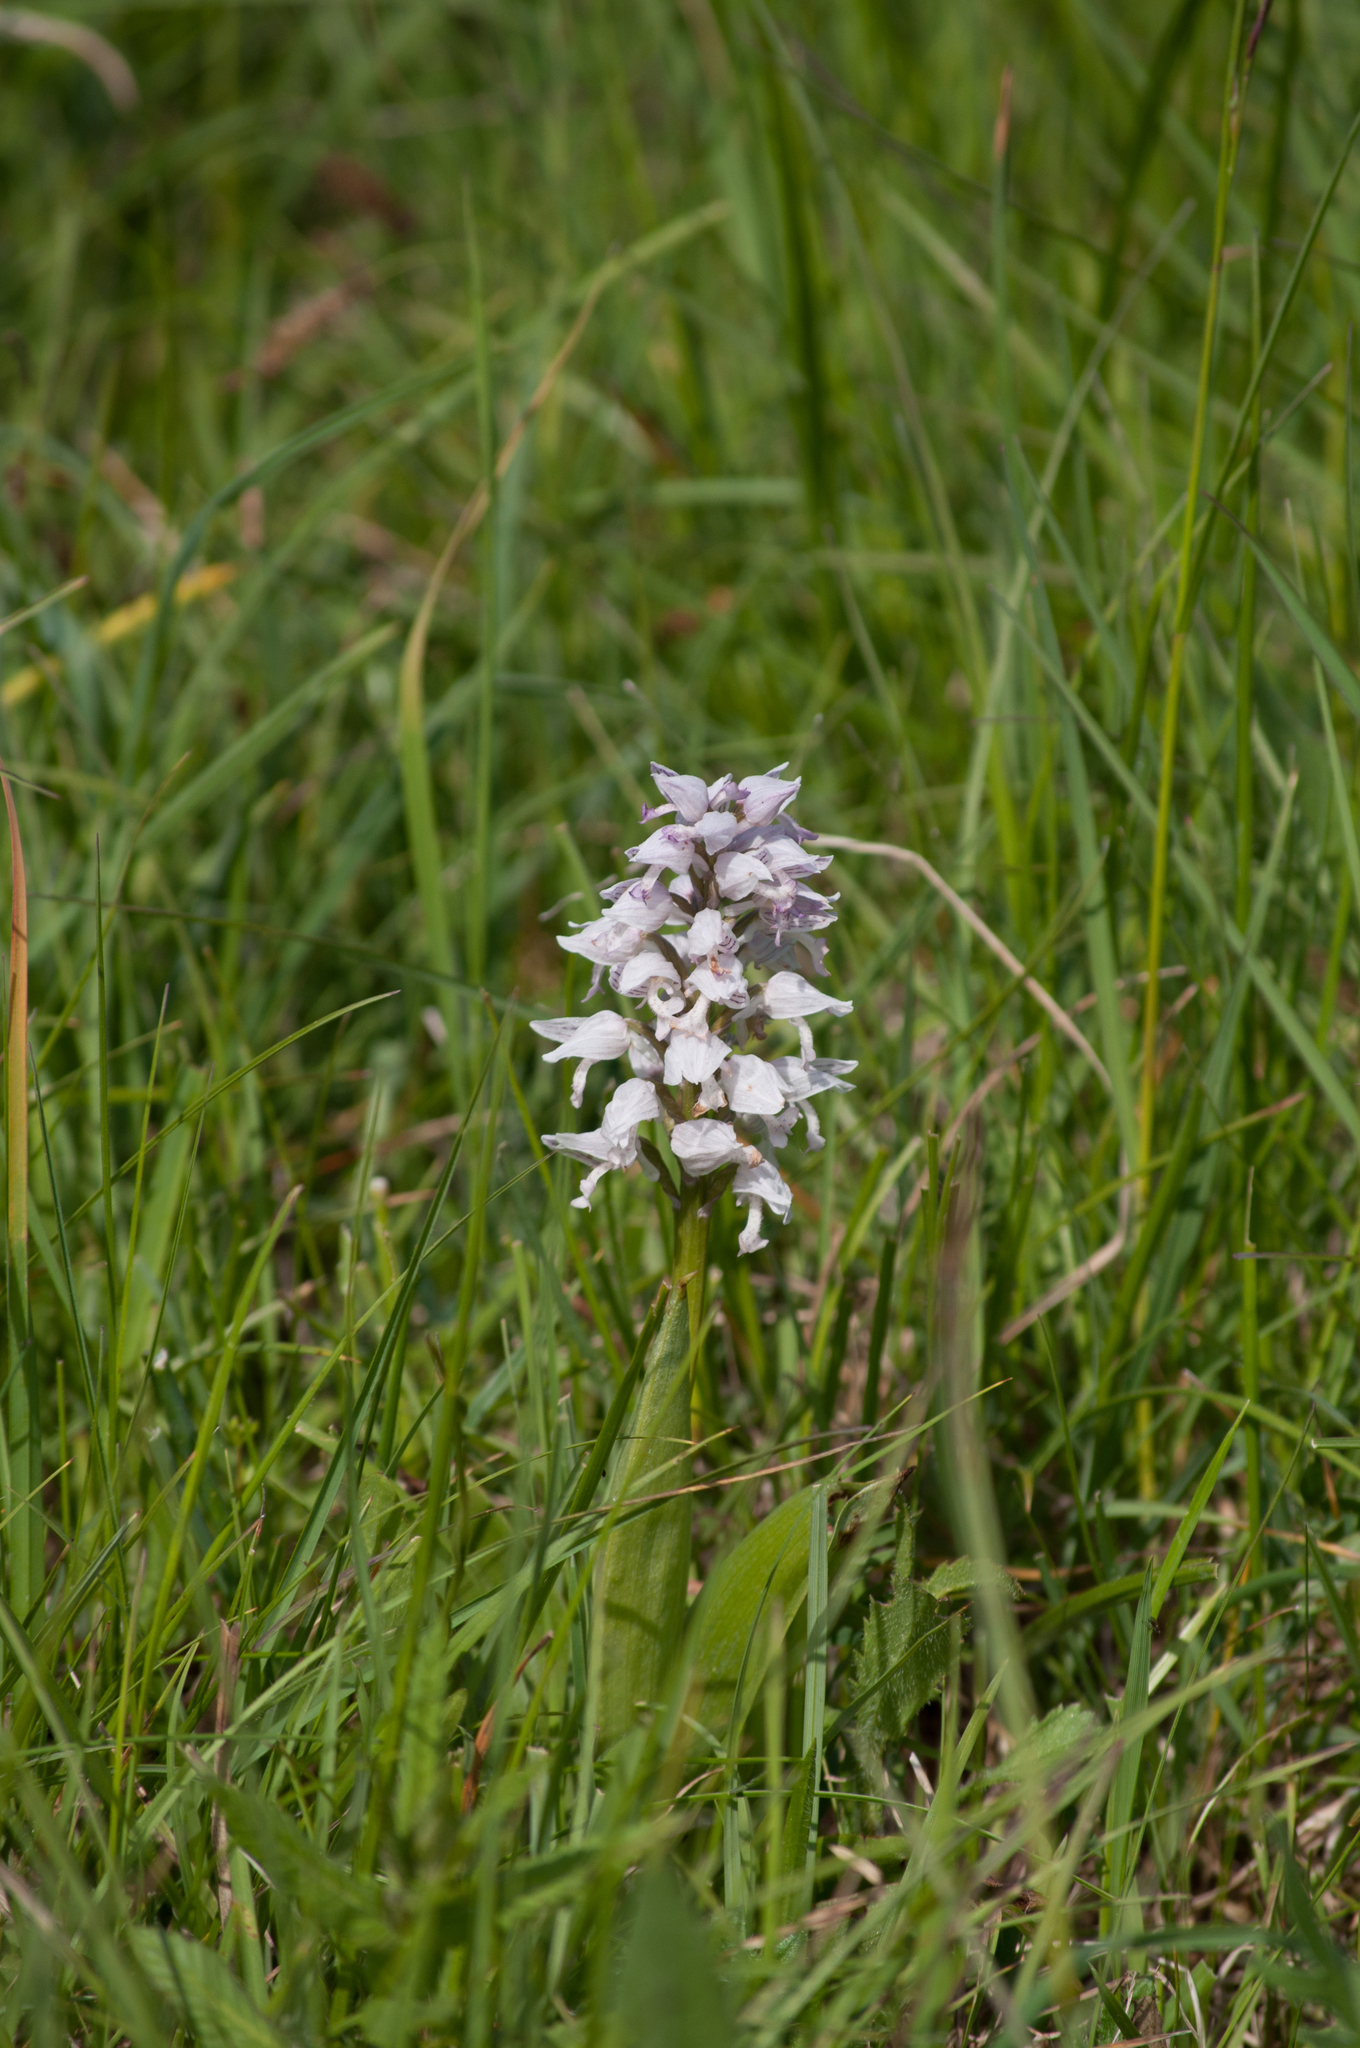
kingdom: Plantae
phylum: Tracheophyta
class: Liliopsida
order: Asparagales
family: Orchidaceae
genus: Orchis
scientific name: Orchis militaris
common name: Military orchid
